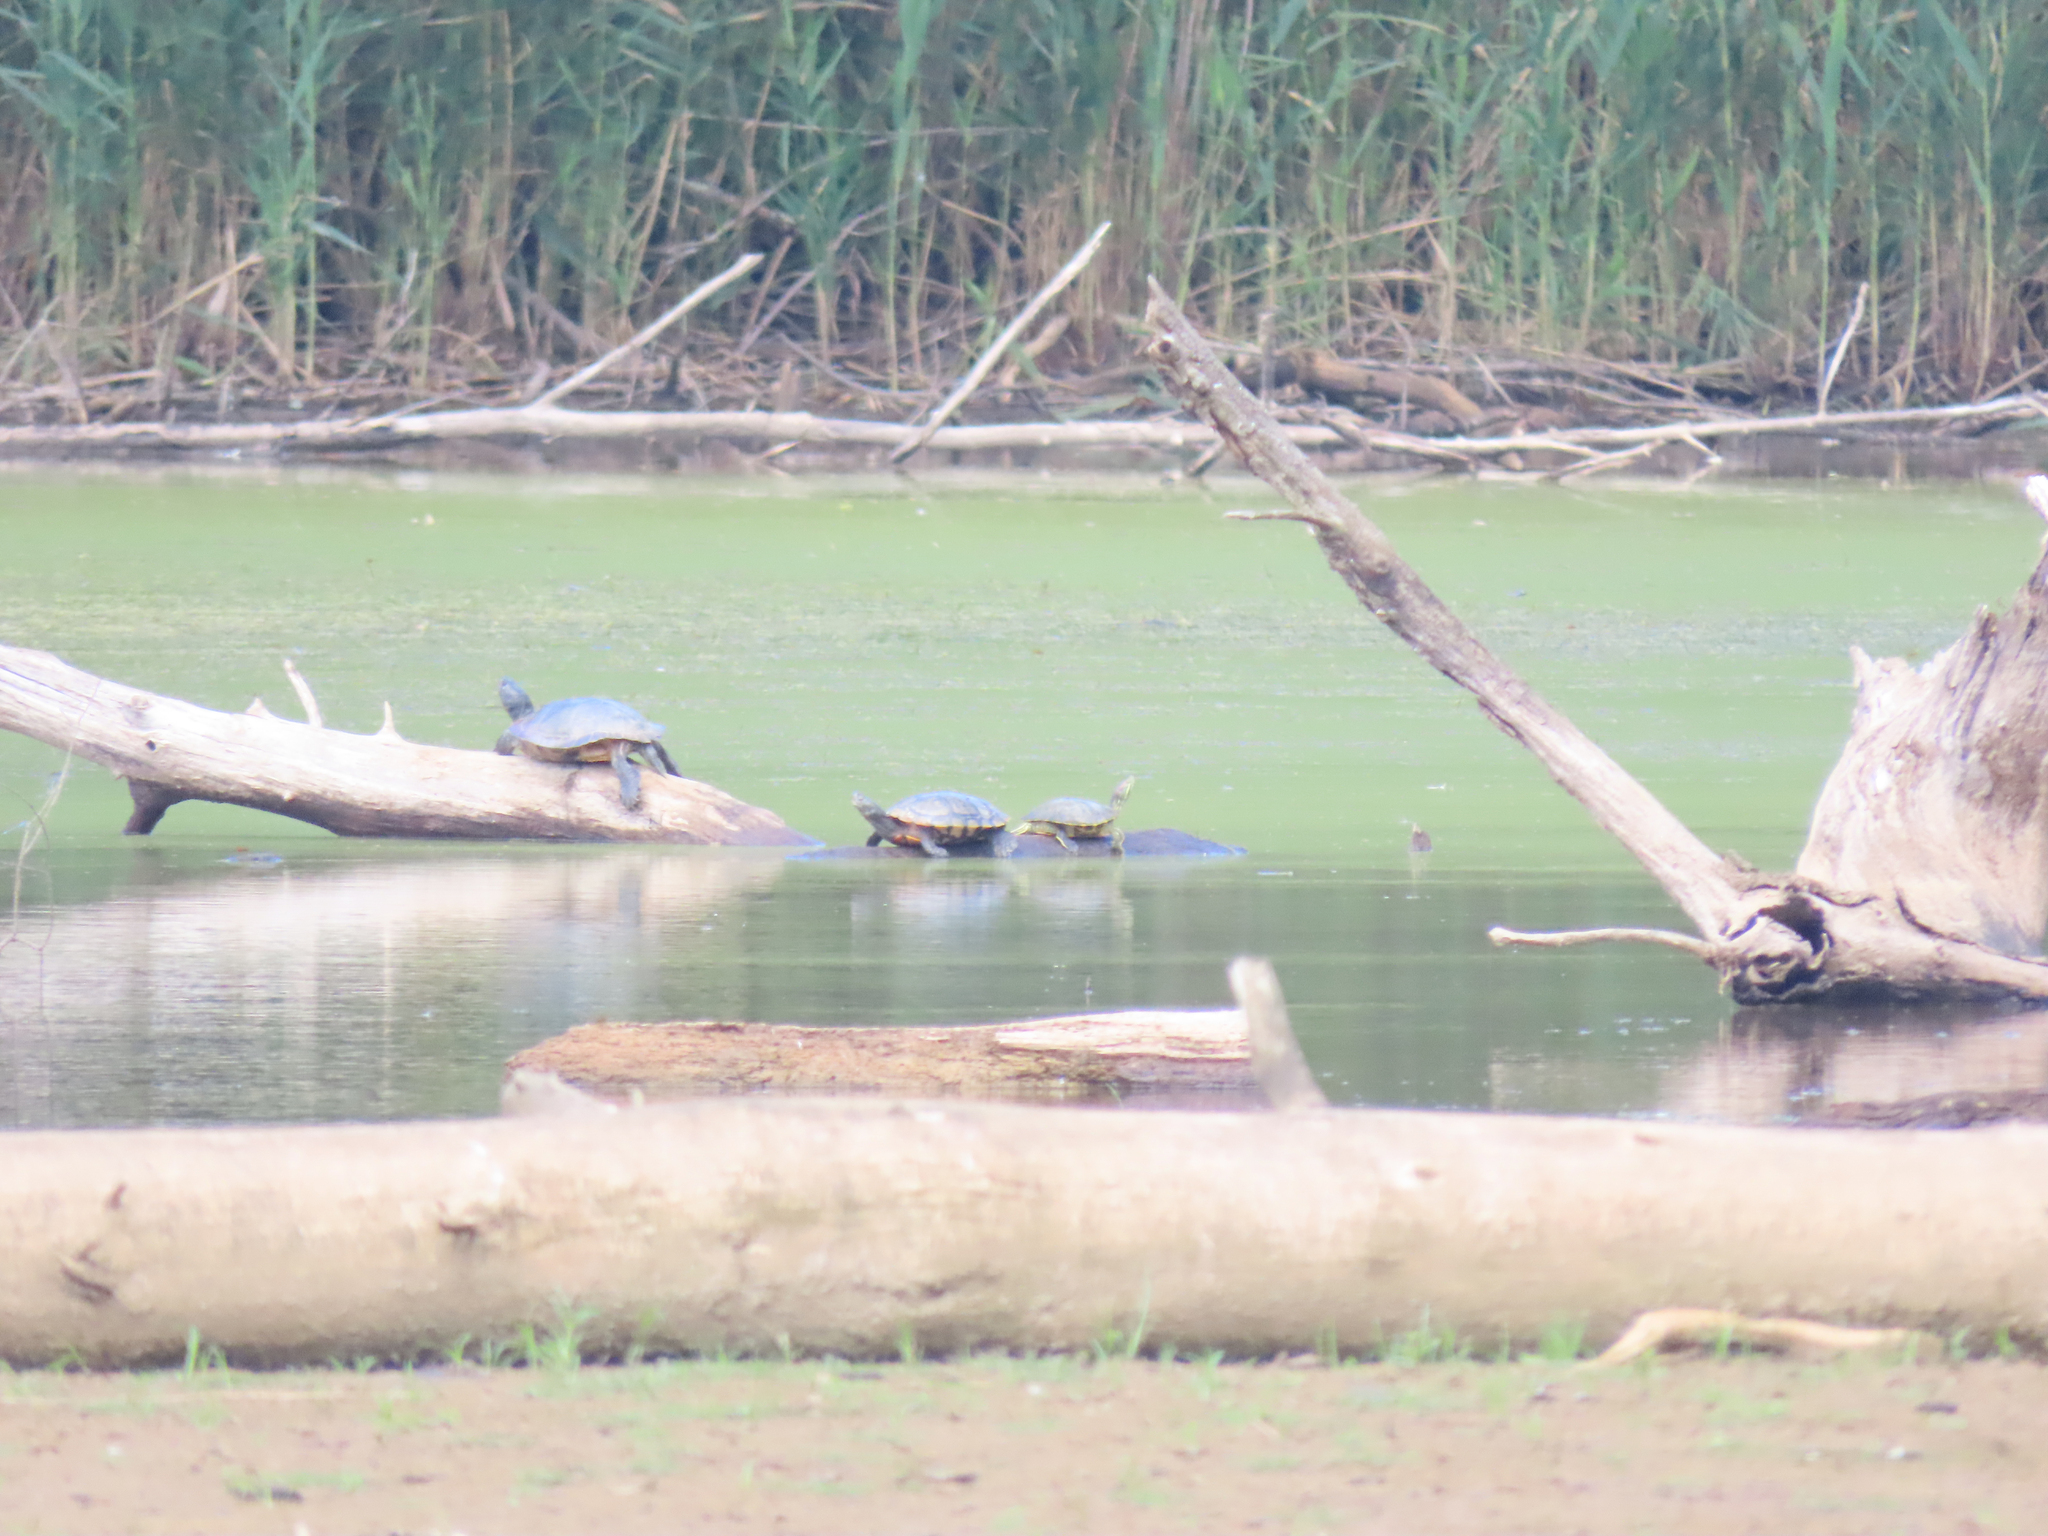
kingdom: Animalia
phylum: Chordata
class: Testudines
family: Emydidae
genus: Trachemys
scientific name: Trachemys scripta
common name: Slider
